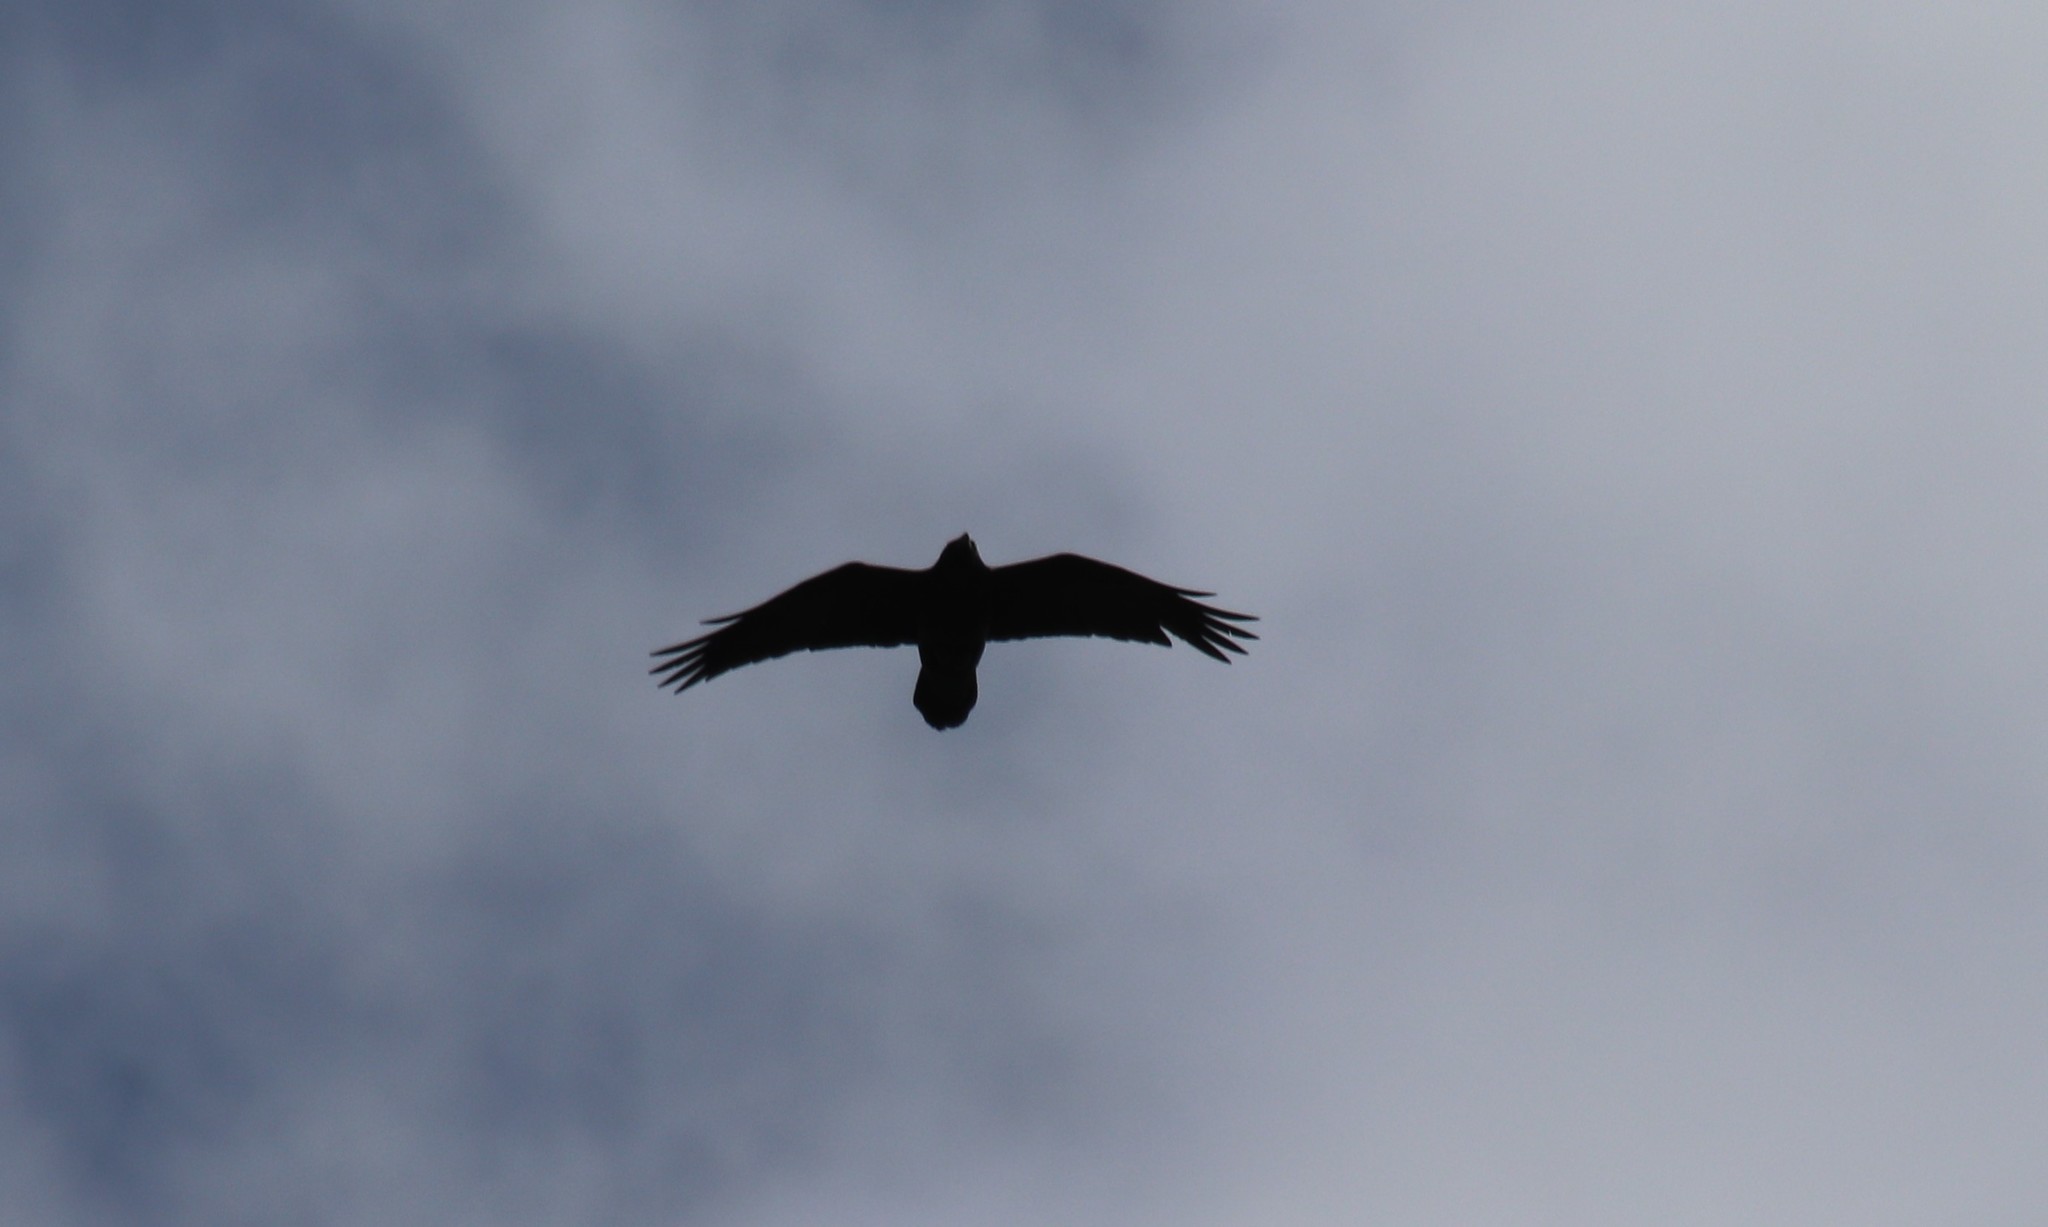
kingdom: Animalia
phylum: Chordata
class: Aves
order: Passeriformes
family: Corvidae
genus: Corvus
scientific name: Corvus corax
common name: Common raven
